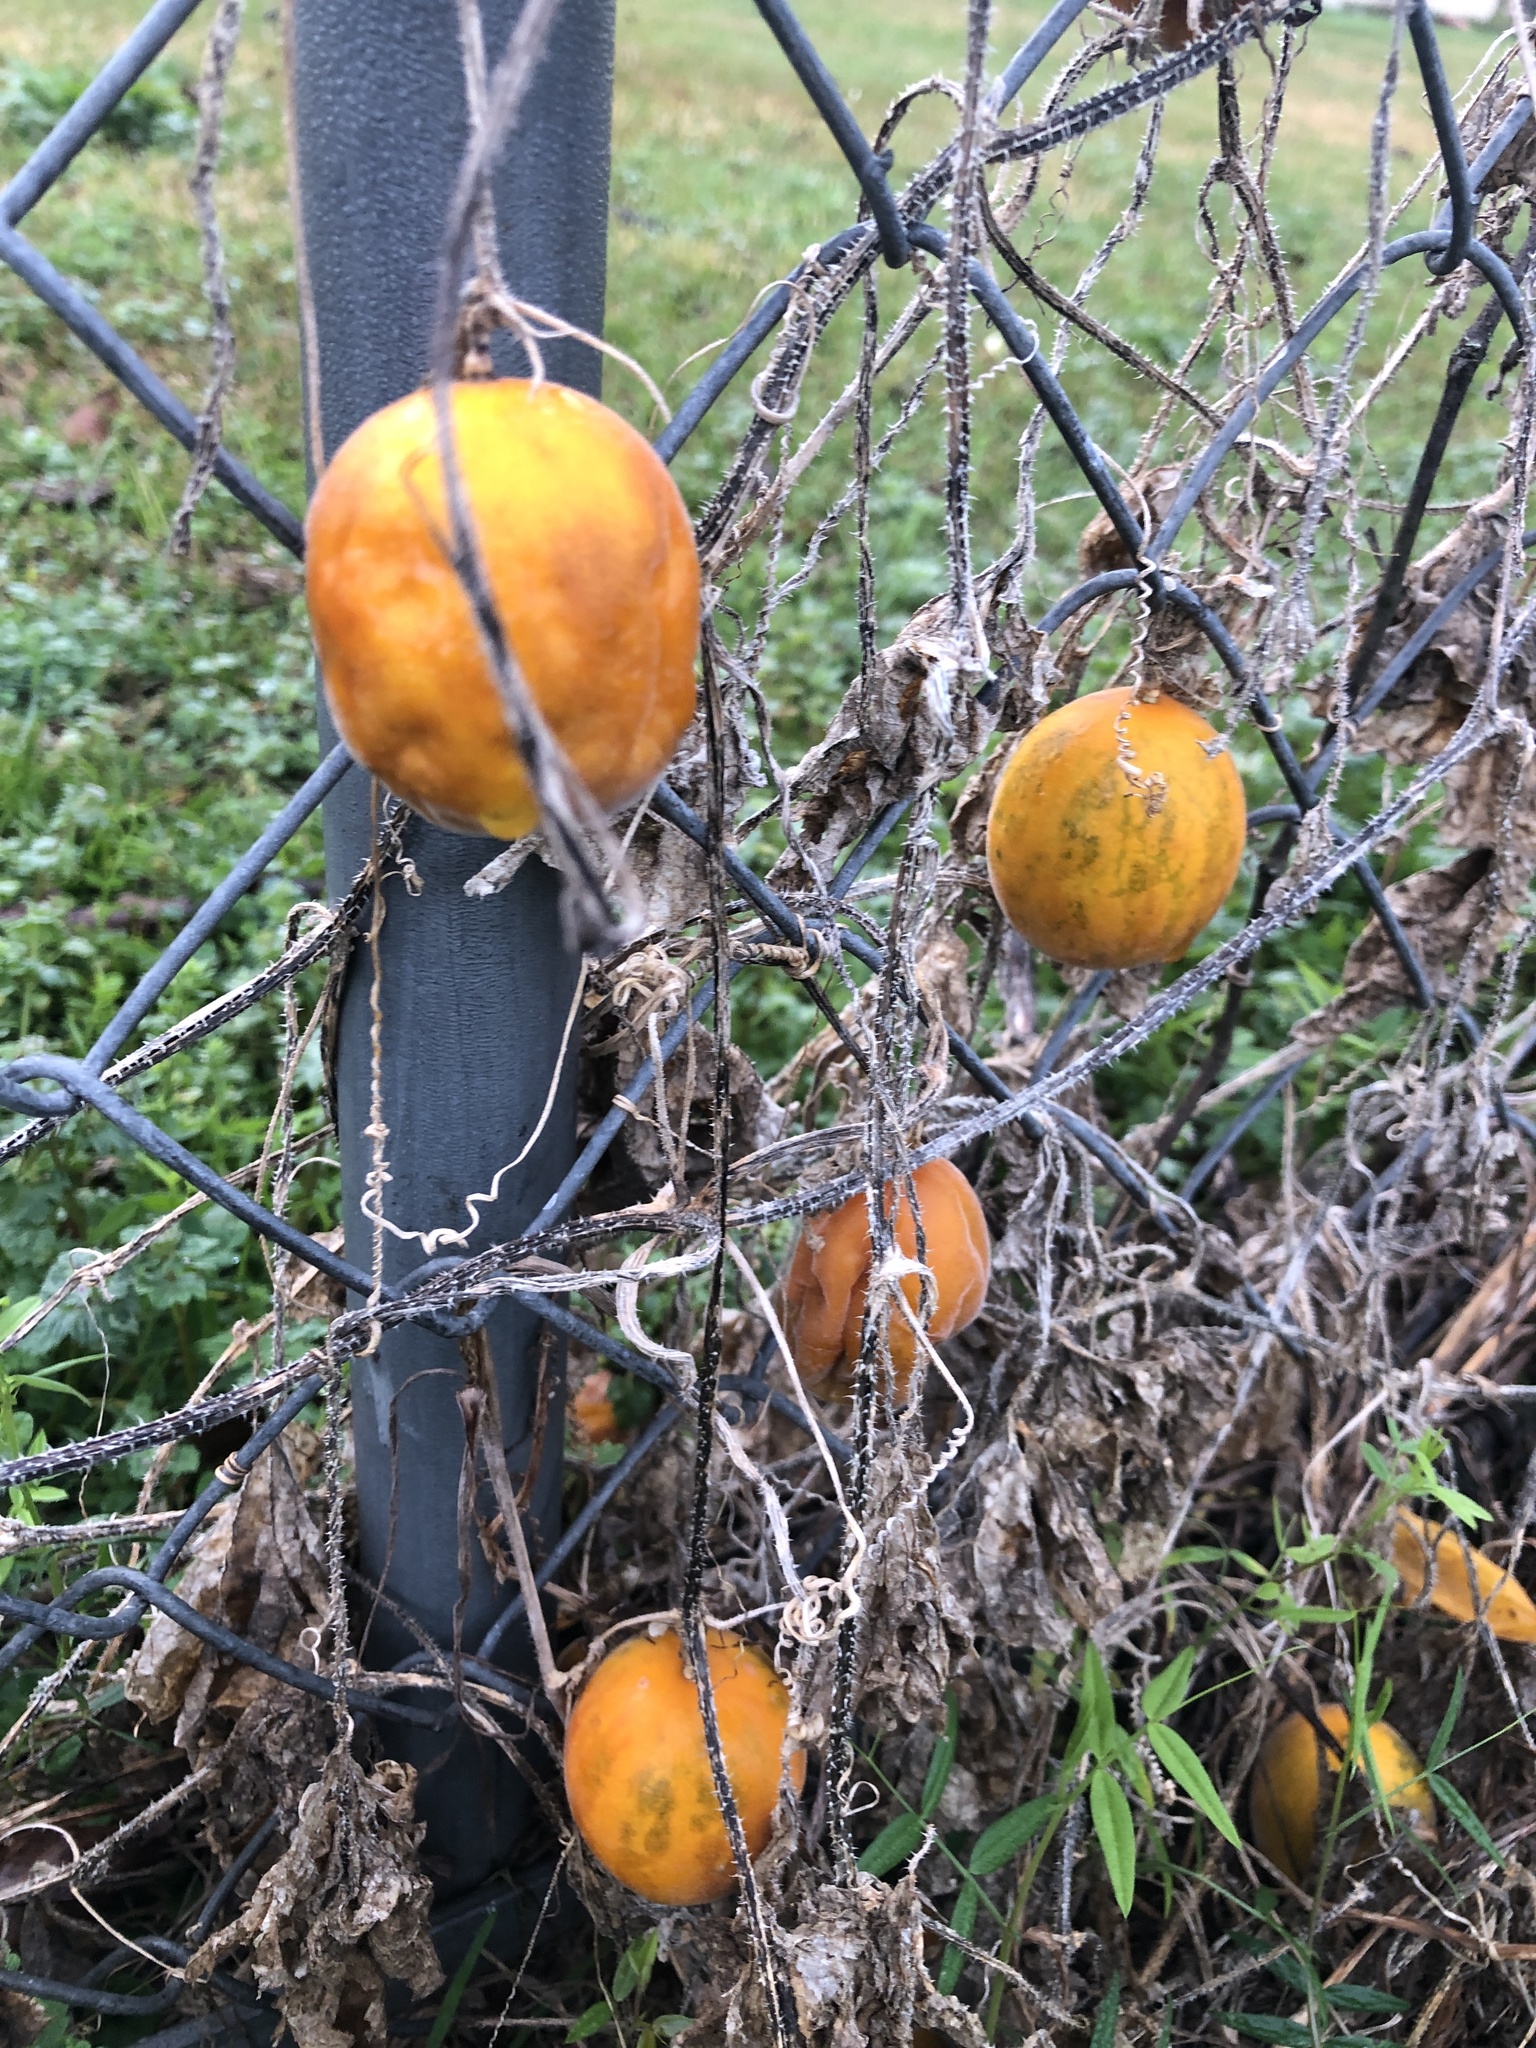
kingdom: Plantae
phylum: Tracheophyta
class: Magnoliopsida
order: Cucurbitales
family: Cucurbitaceae
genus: Cucumis
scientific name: Cucumis melo
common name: Melon
